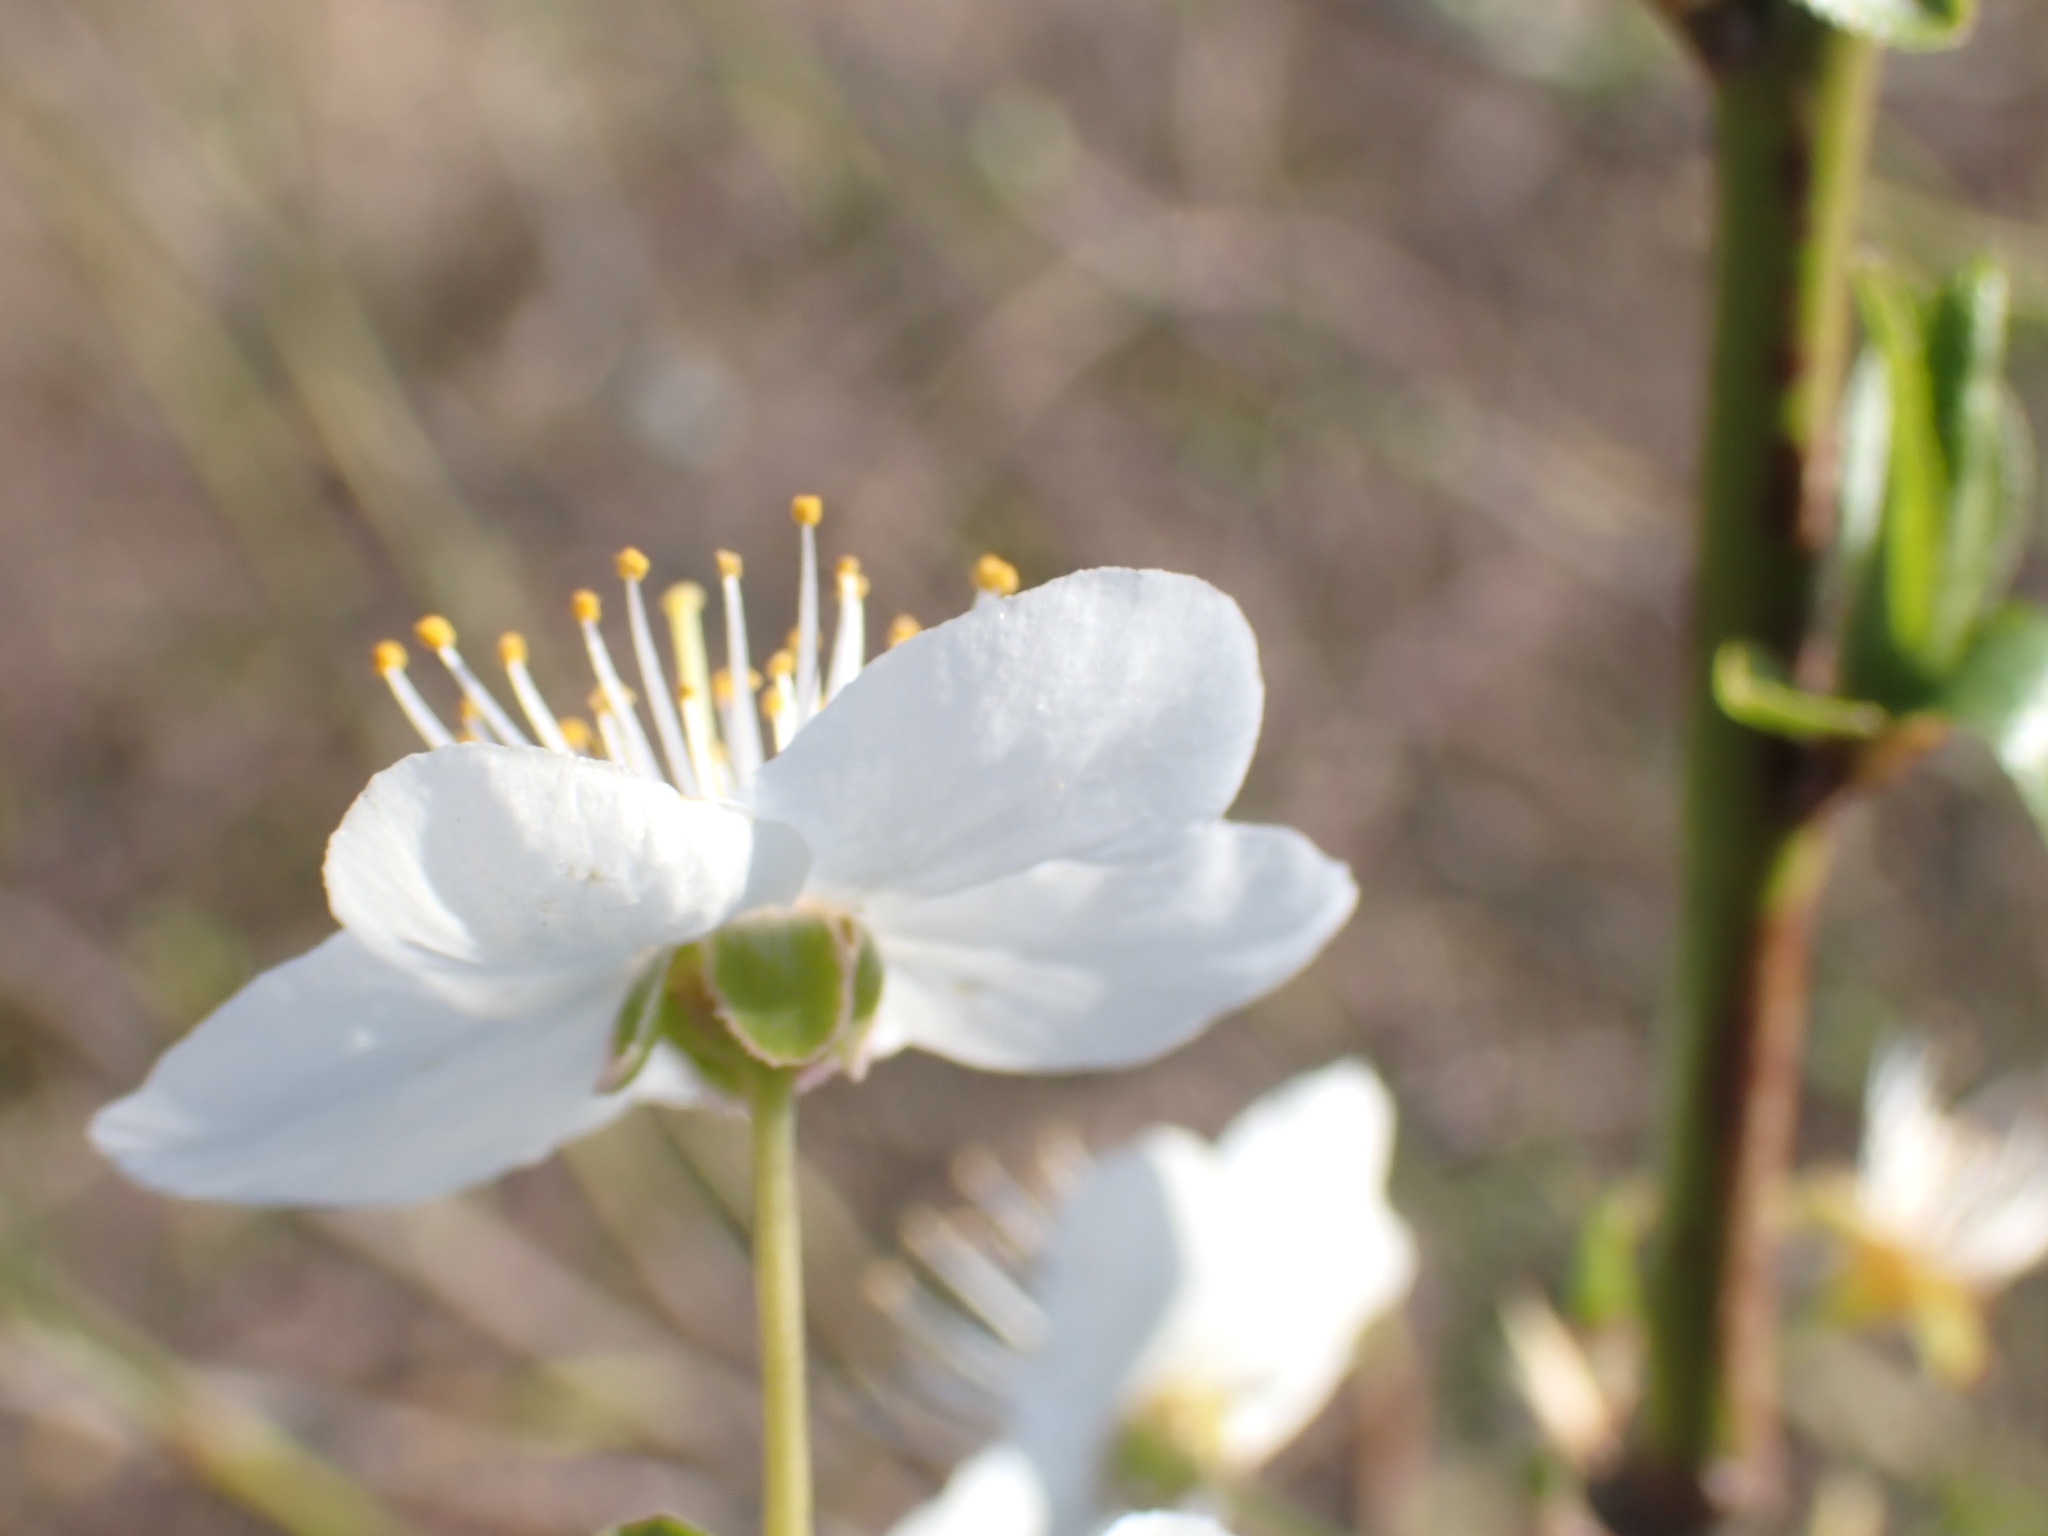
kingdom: Plantae
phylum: Tracheophyta
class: Magnoliopsida
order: Rosales
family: Rosaceae
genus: Prunus
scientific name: Prunus cerasifera
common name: Cherry plum
